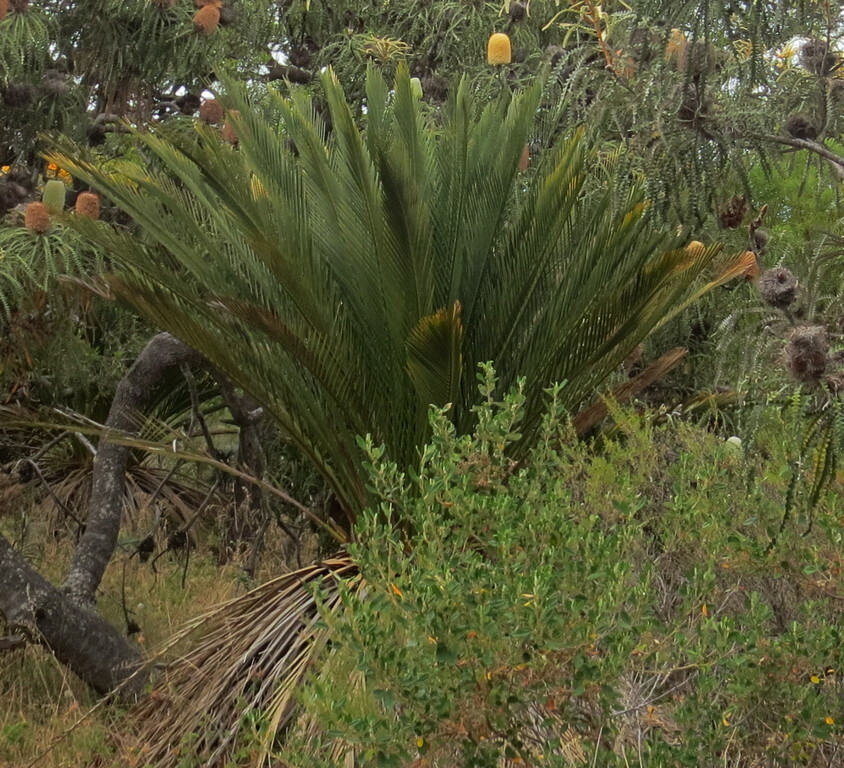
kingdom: Plantae
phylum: Tracheophyta
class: Cycadopsida
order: Cycadales
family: Zamiaceae
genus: Macrozamia
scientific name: Macrozamia dyeri
